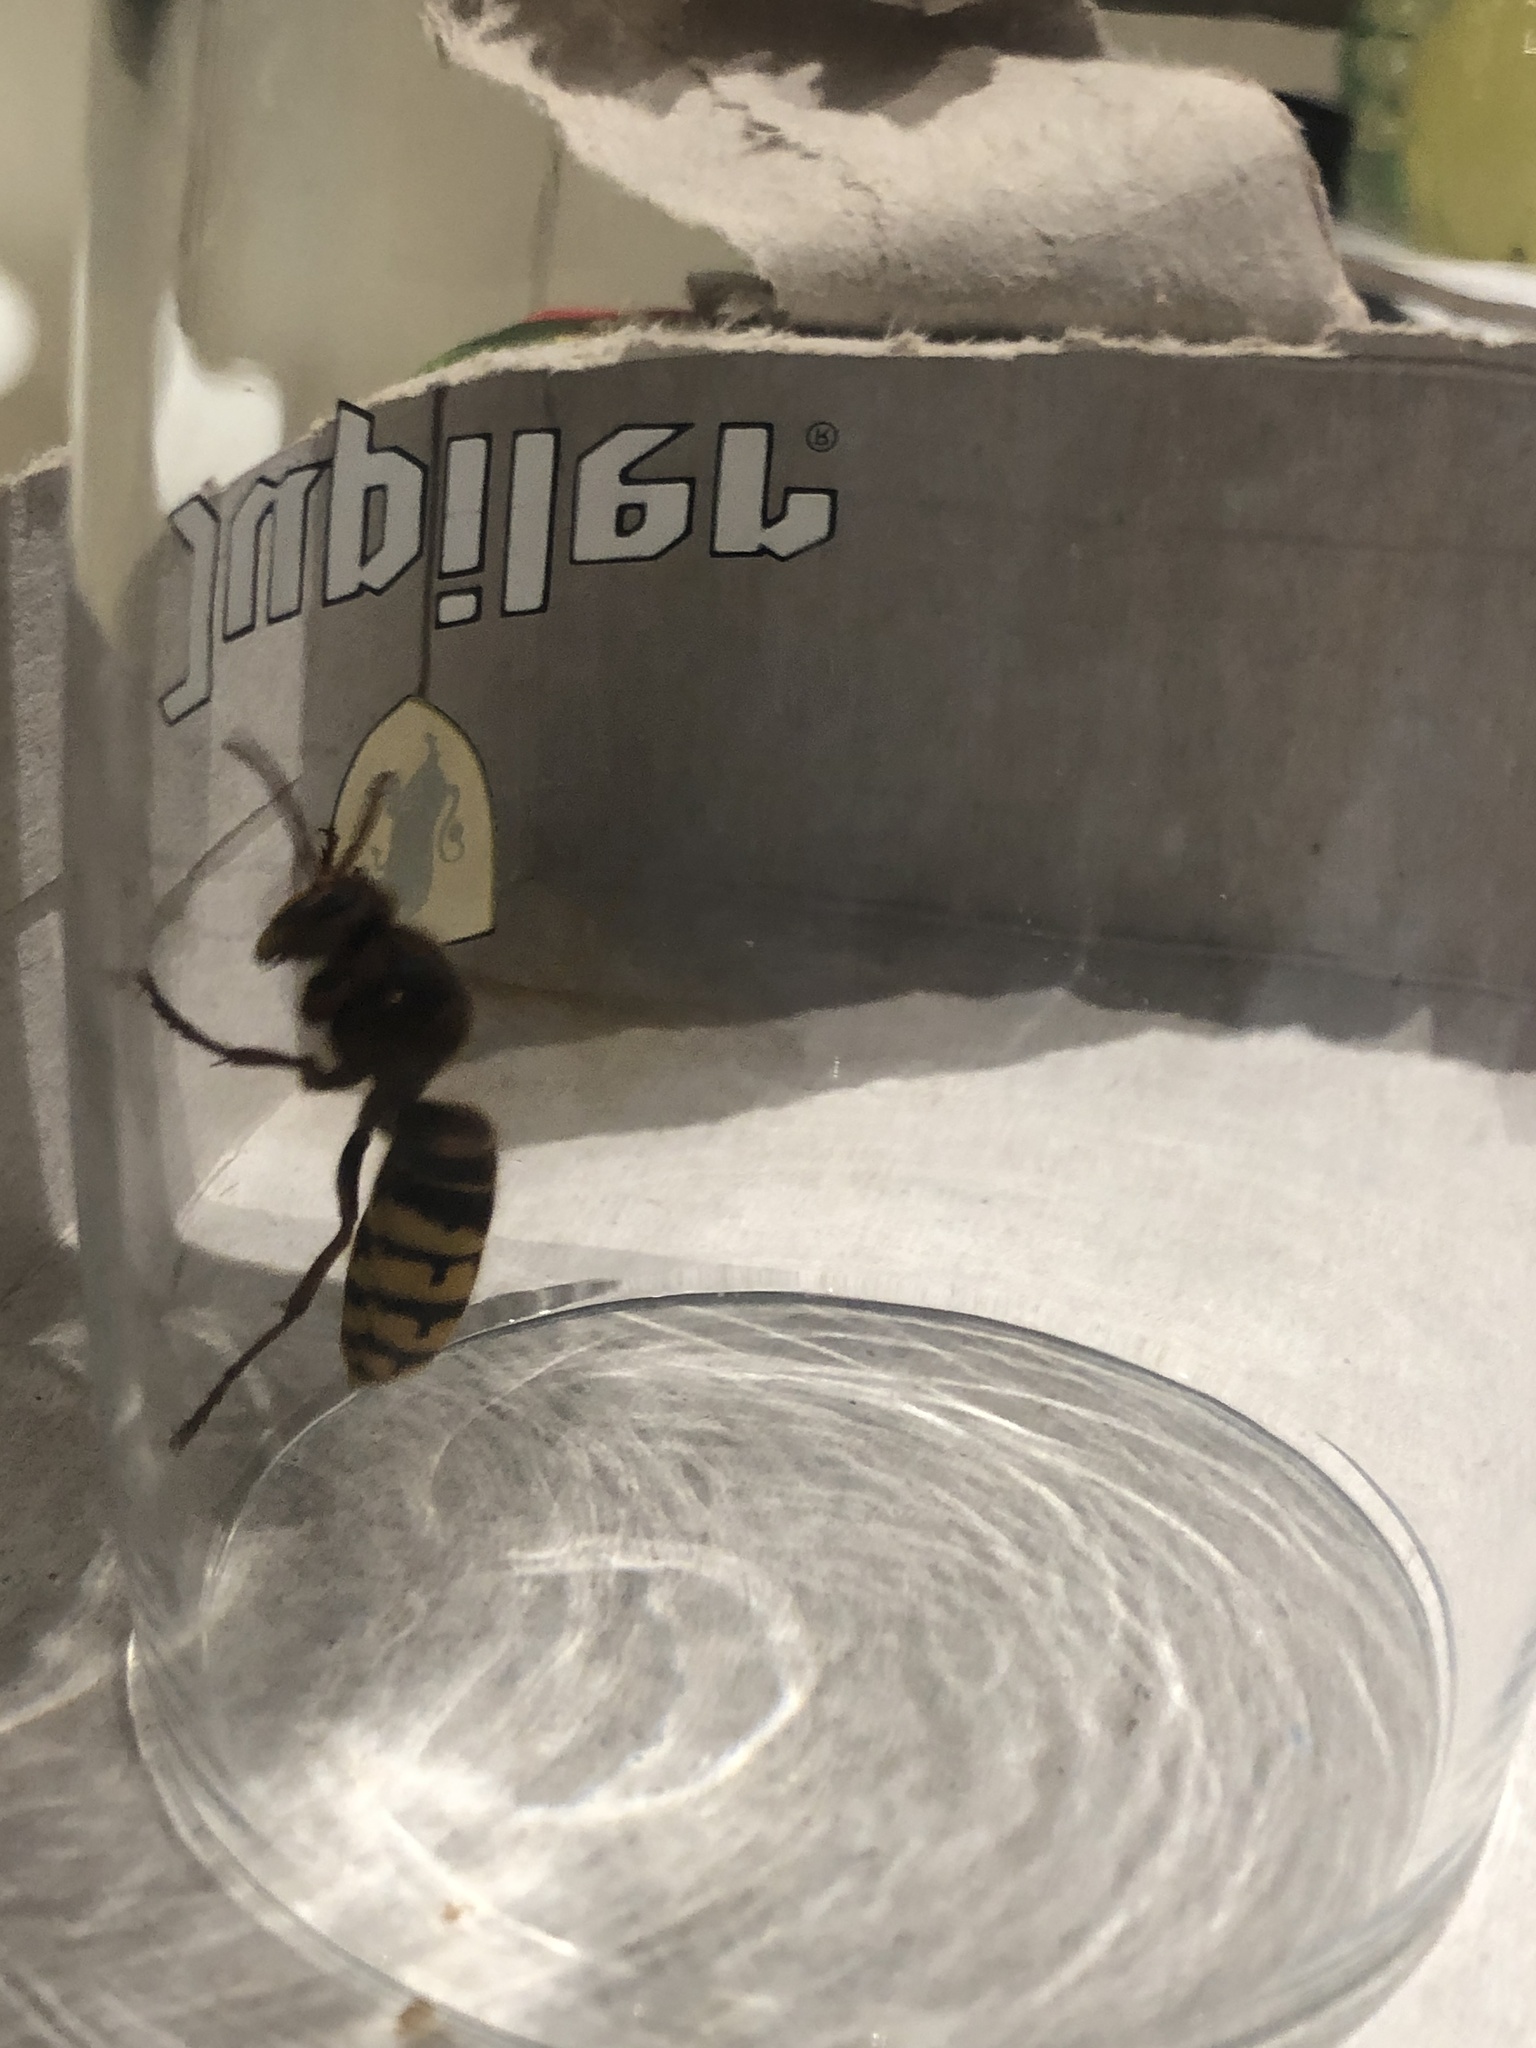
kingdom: Animalia
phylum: Arthropoda
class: Insecta
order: Hymenoptera
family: Vespidae
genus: Vespa
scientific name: Vespa crabro
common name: Hornet
